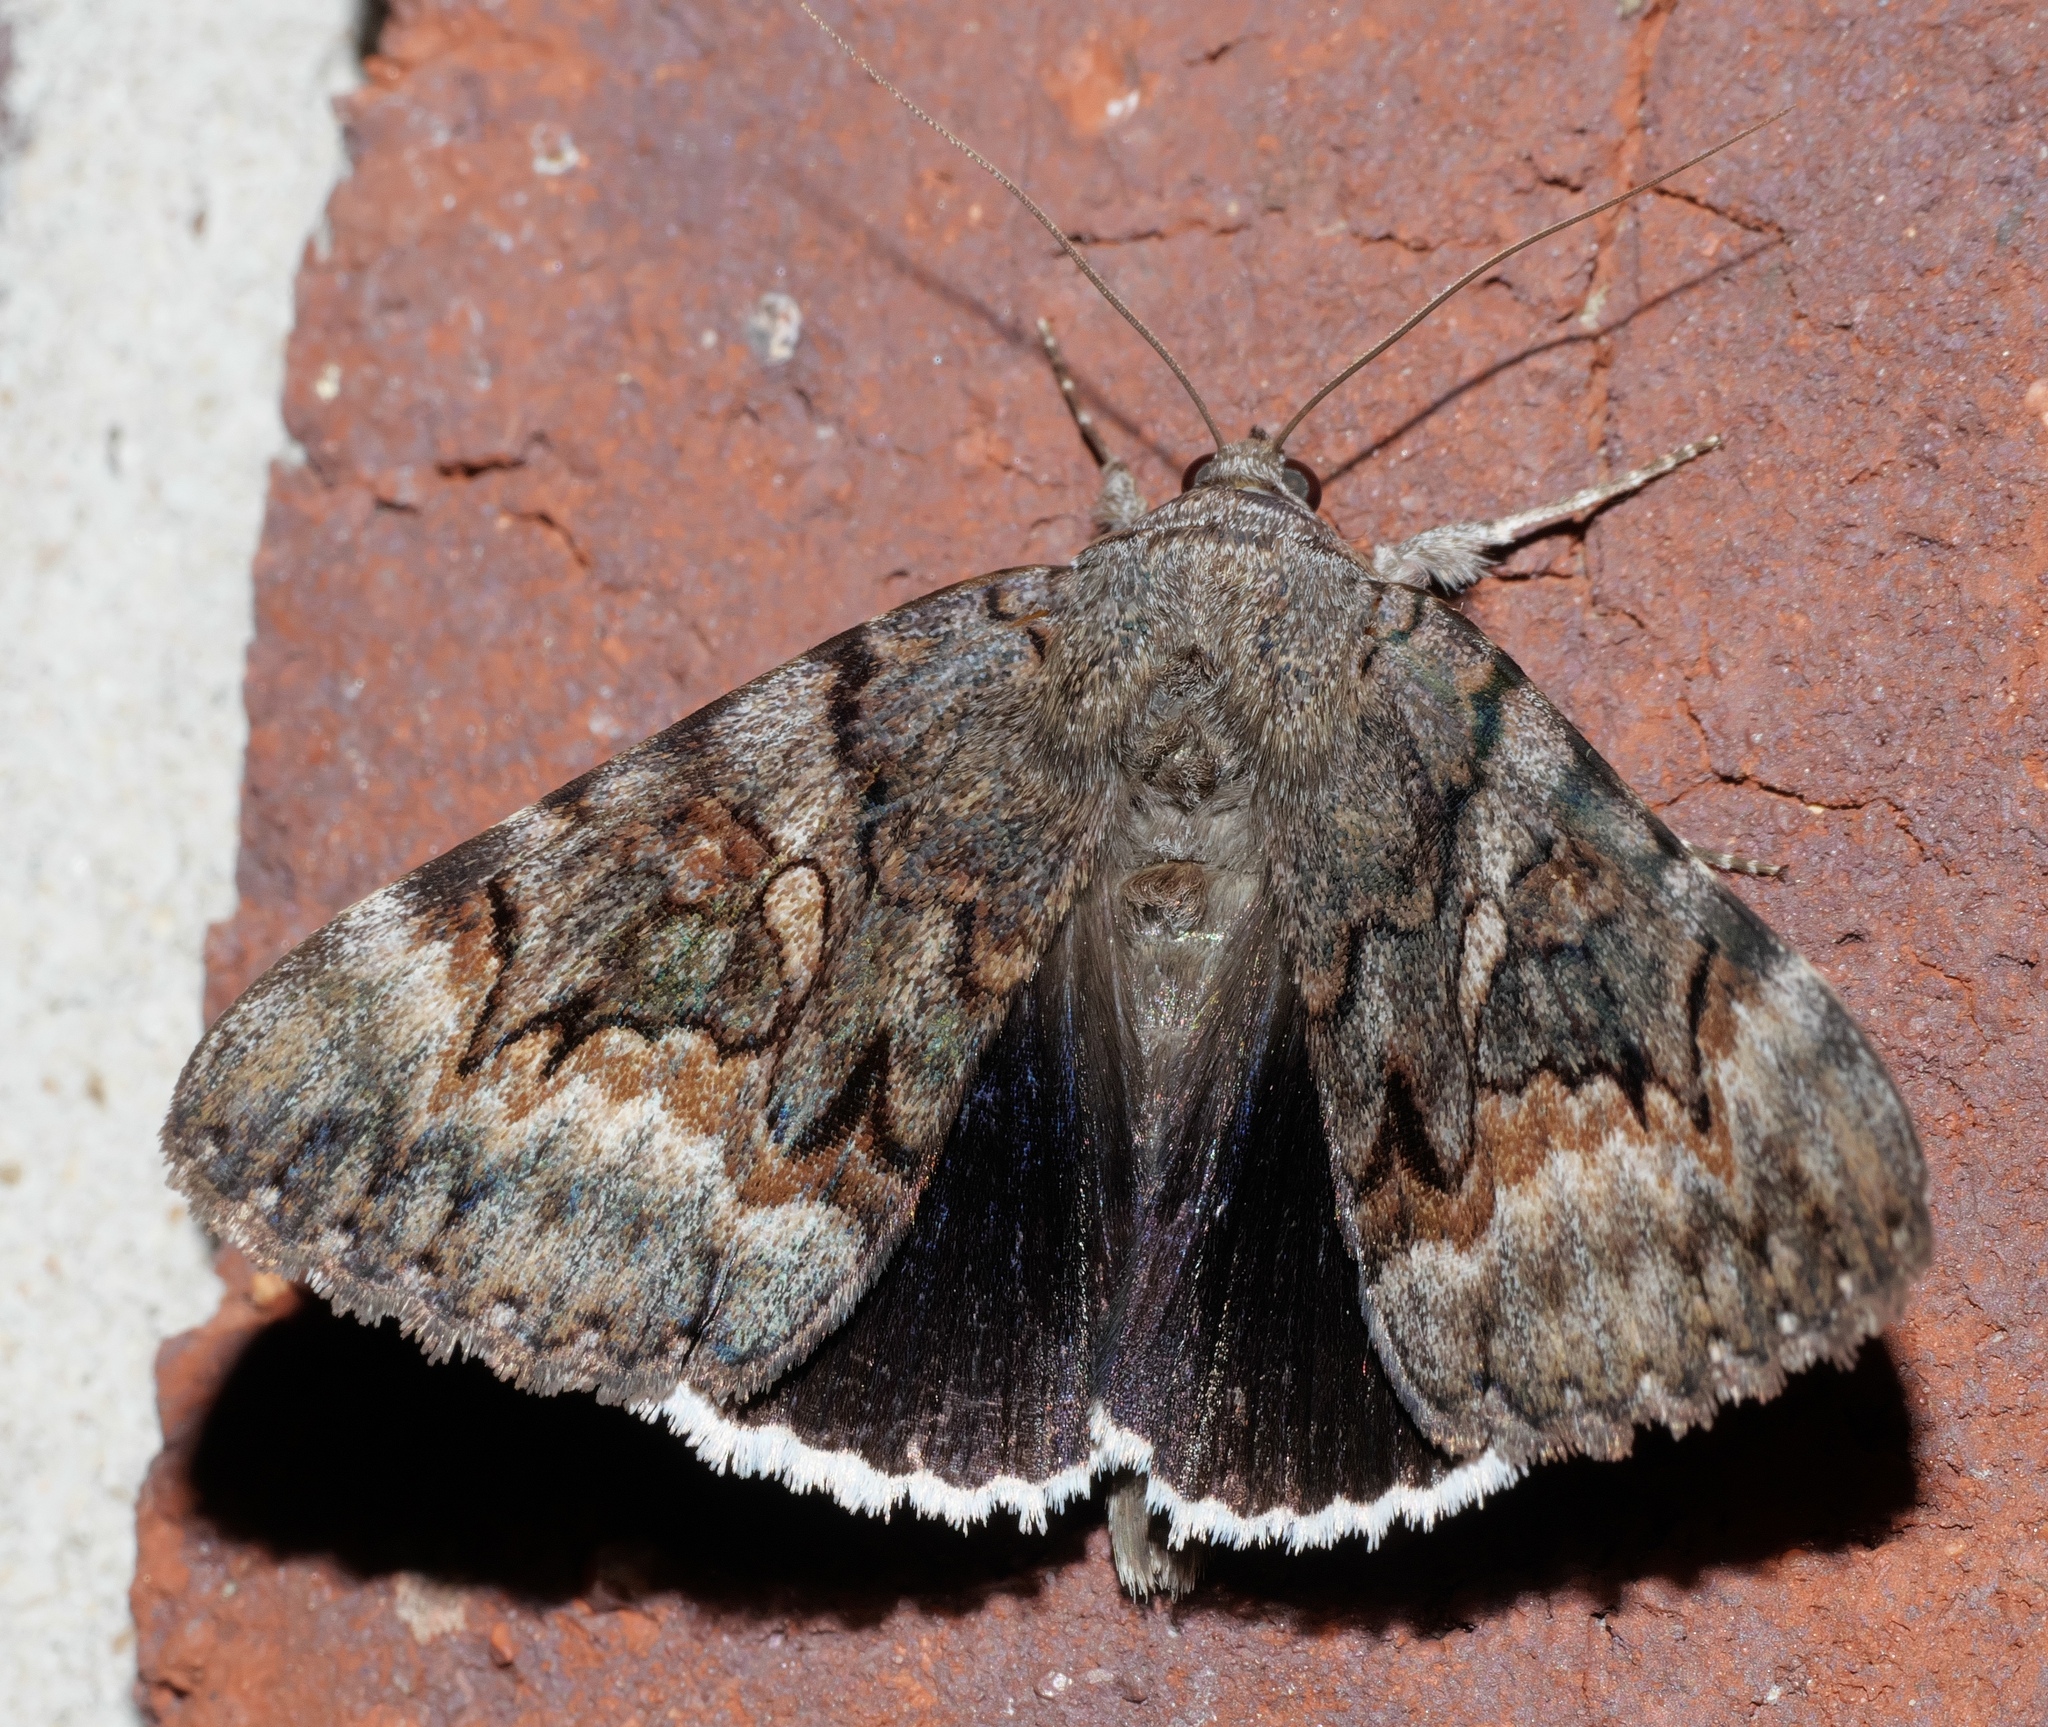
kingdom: Animalia
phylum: Arthropoda
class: Insecta
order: Lepidoptera
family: Erebidae
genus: Catocala
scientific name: Catocala epione
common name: Epione underwing
